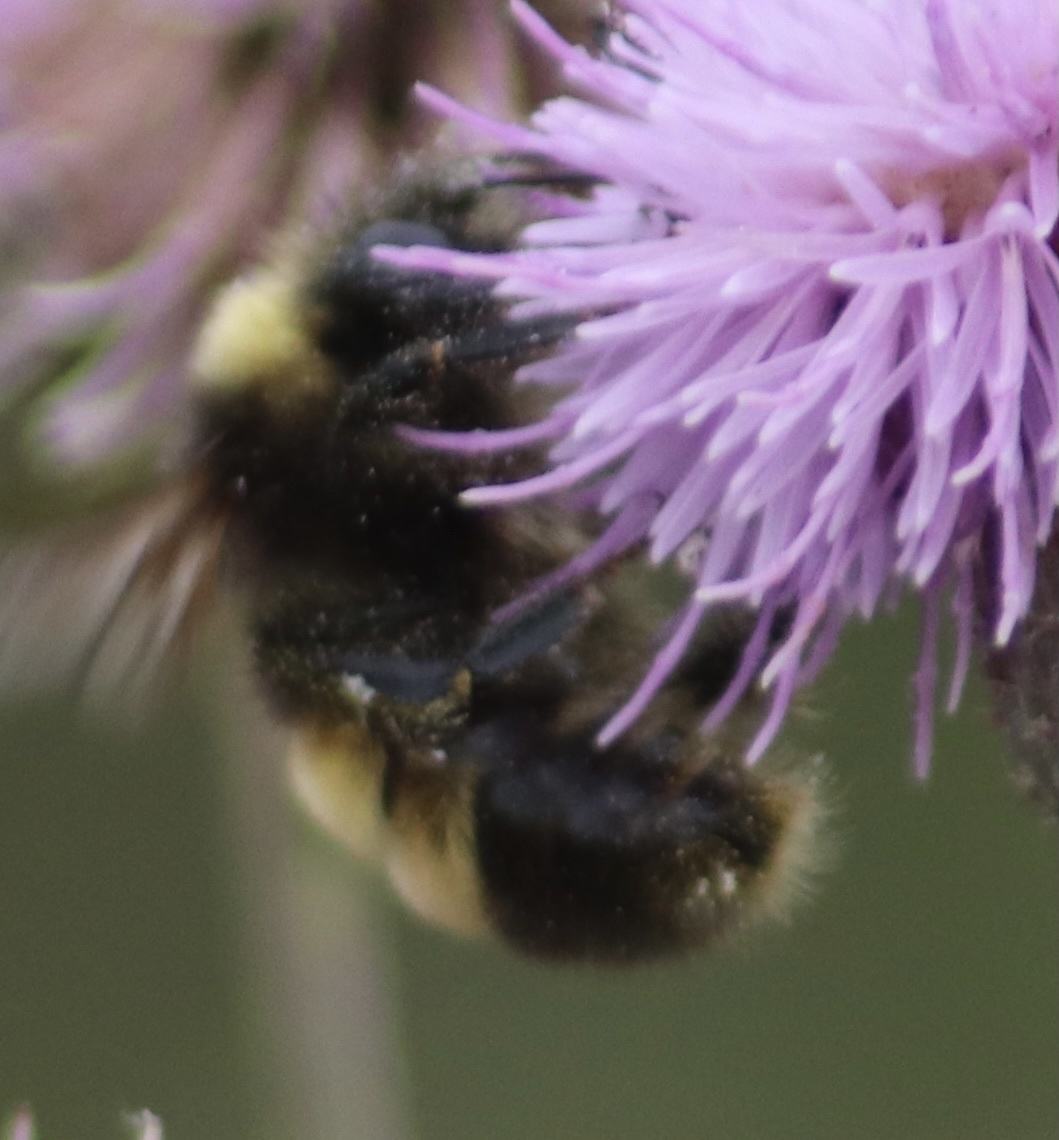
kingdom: Animalia
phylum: Arthropoda
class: Insecta
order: Hymenoptera
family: Apidae
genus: Bombus
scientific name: Bombus vagans
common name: Half-black bumble bee
